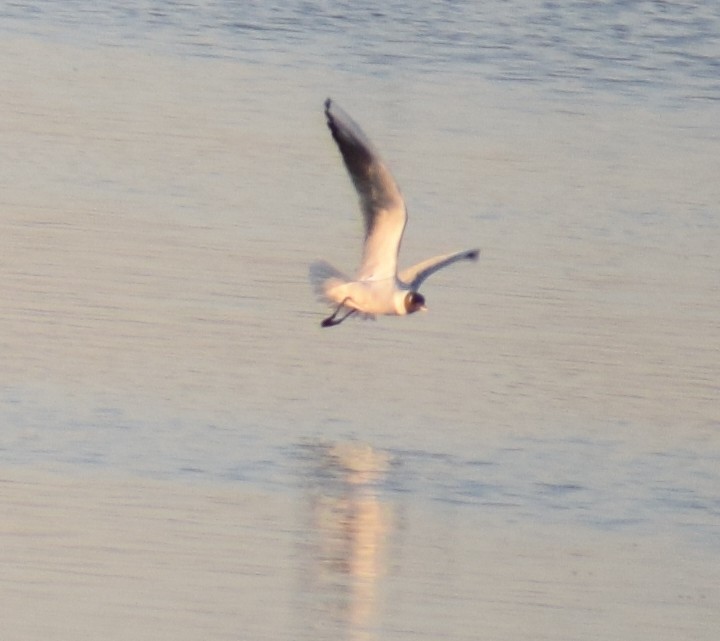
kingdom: Animalia
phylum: Chordata
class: Aves
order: Charadriiformes
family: Laridae
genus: Chroicocephalus
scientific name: Chroicocephalus ridibundus
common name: Black-headed gull
